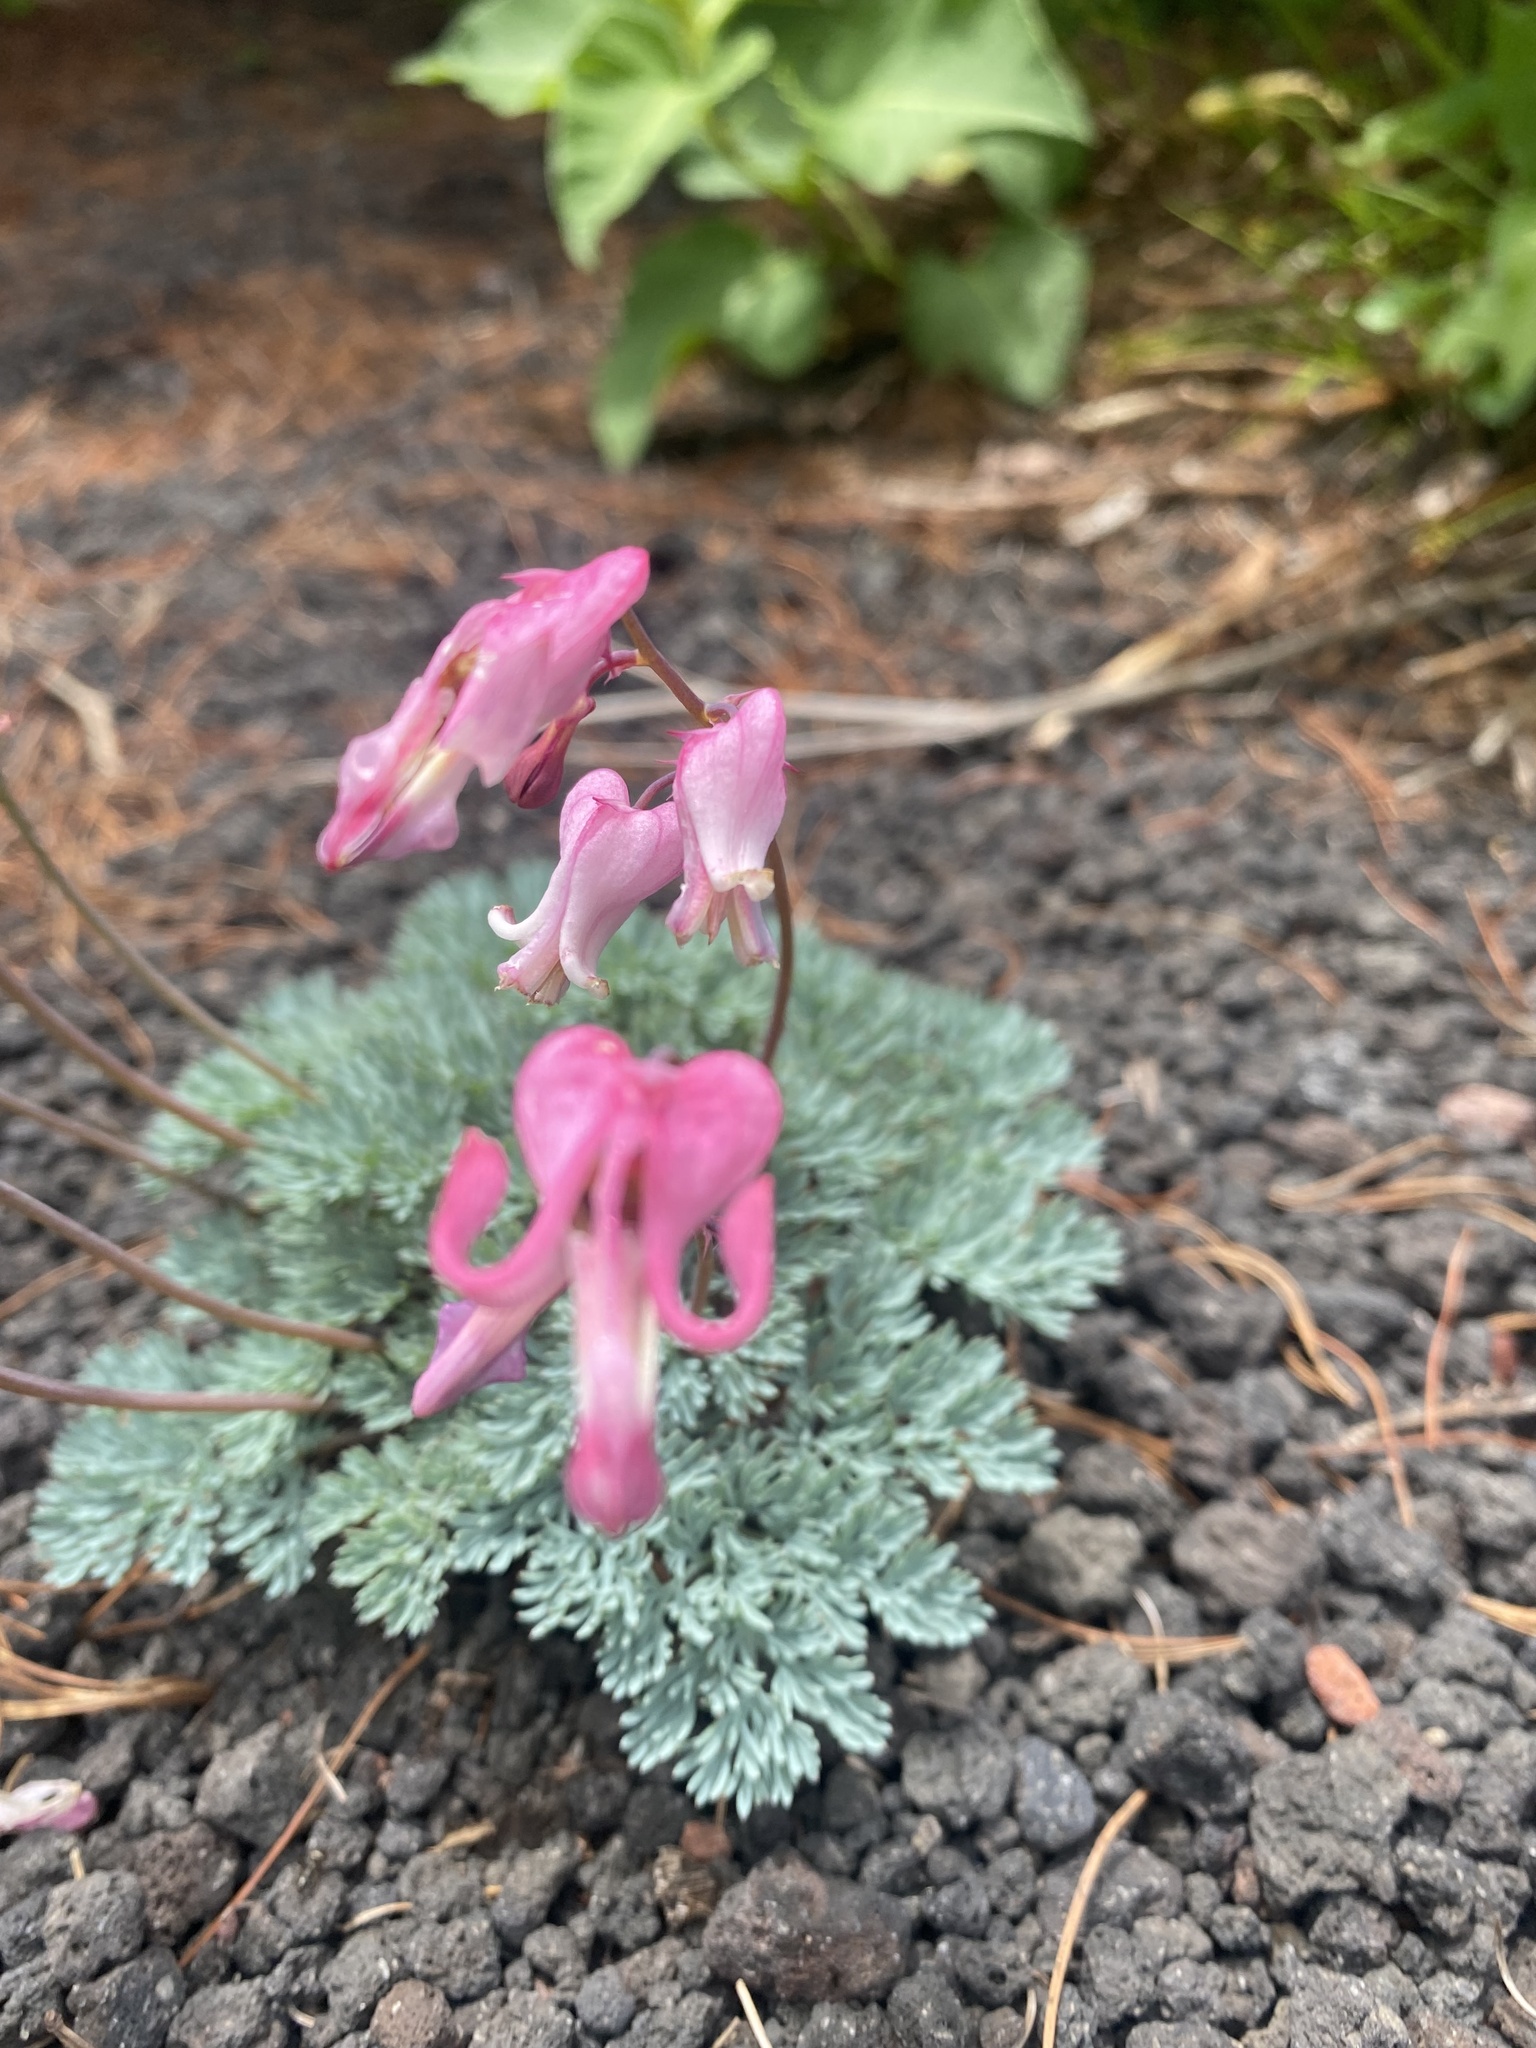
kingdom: Plantae
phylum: Tracheophyta
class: Magnoliopsida
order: Ranunculales
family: Papaveraceae
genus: Dicentra
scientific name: Dicentra peregrina
